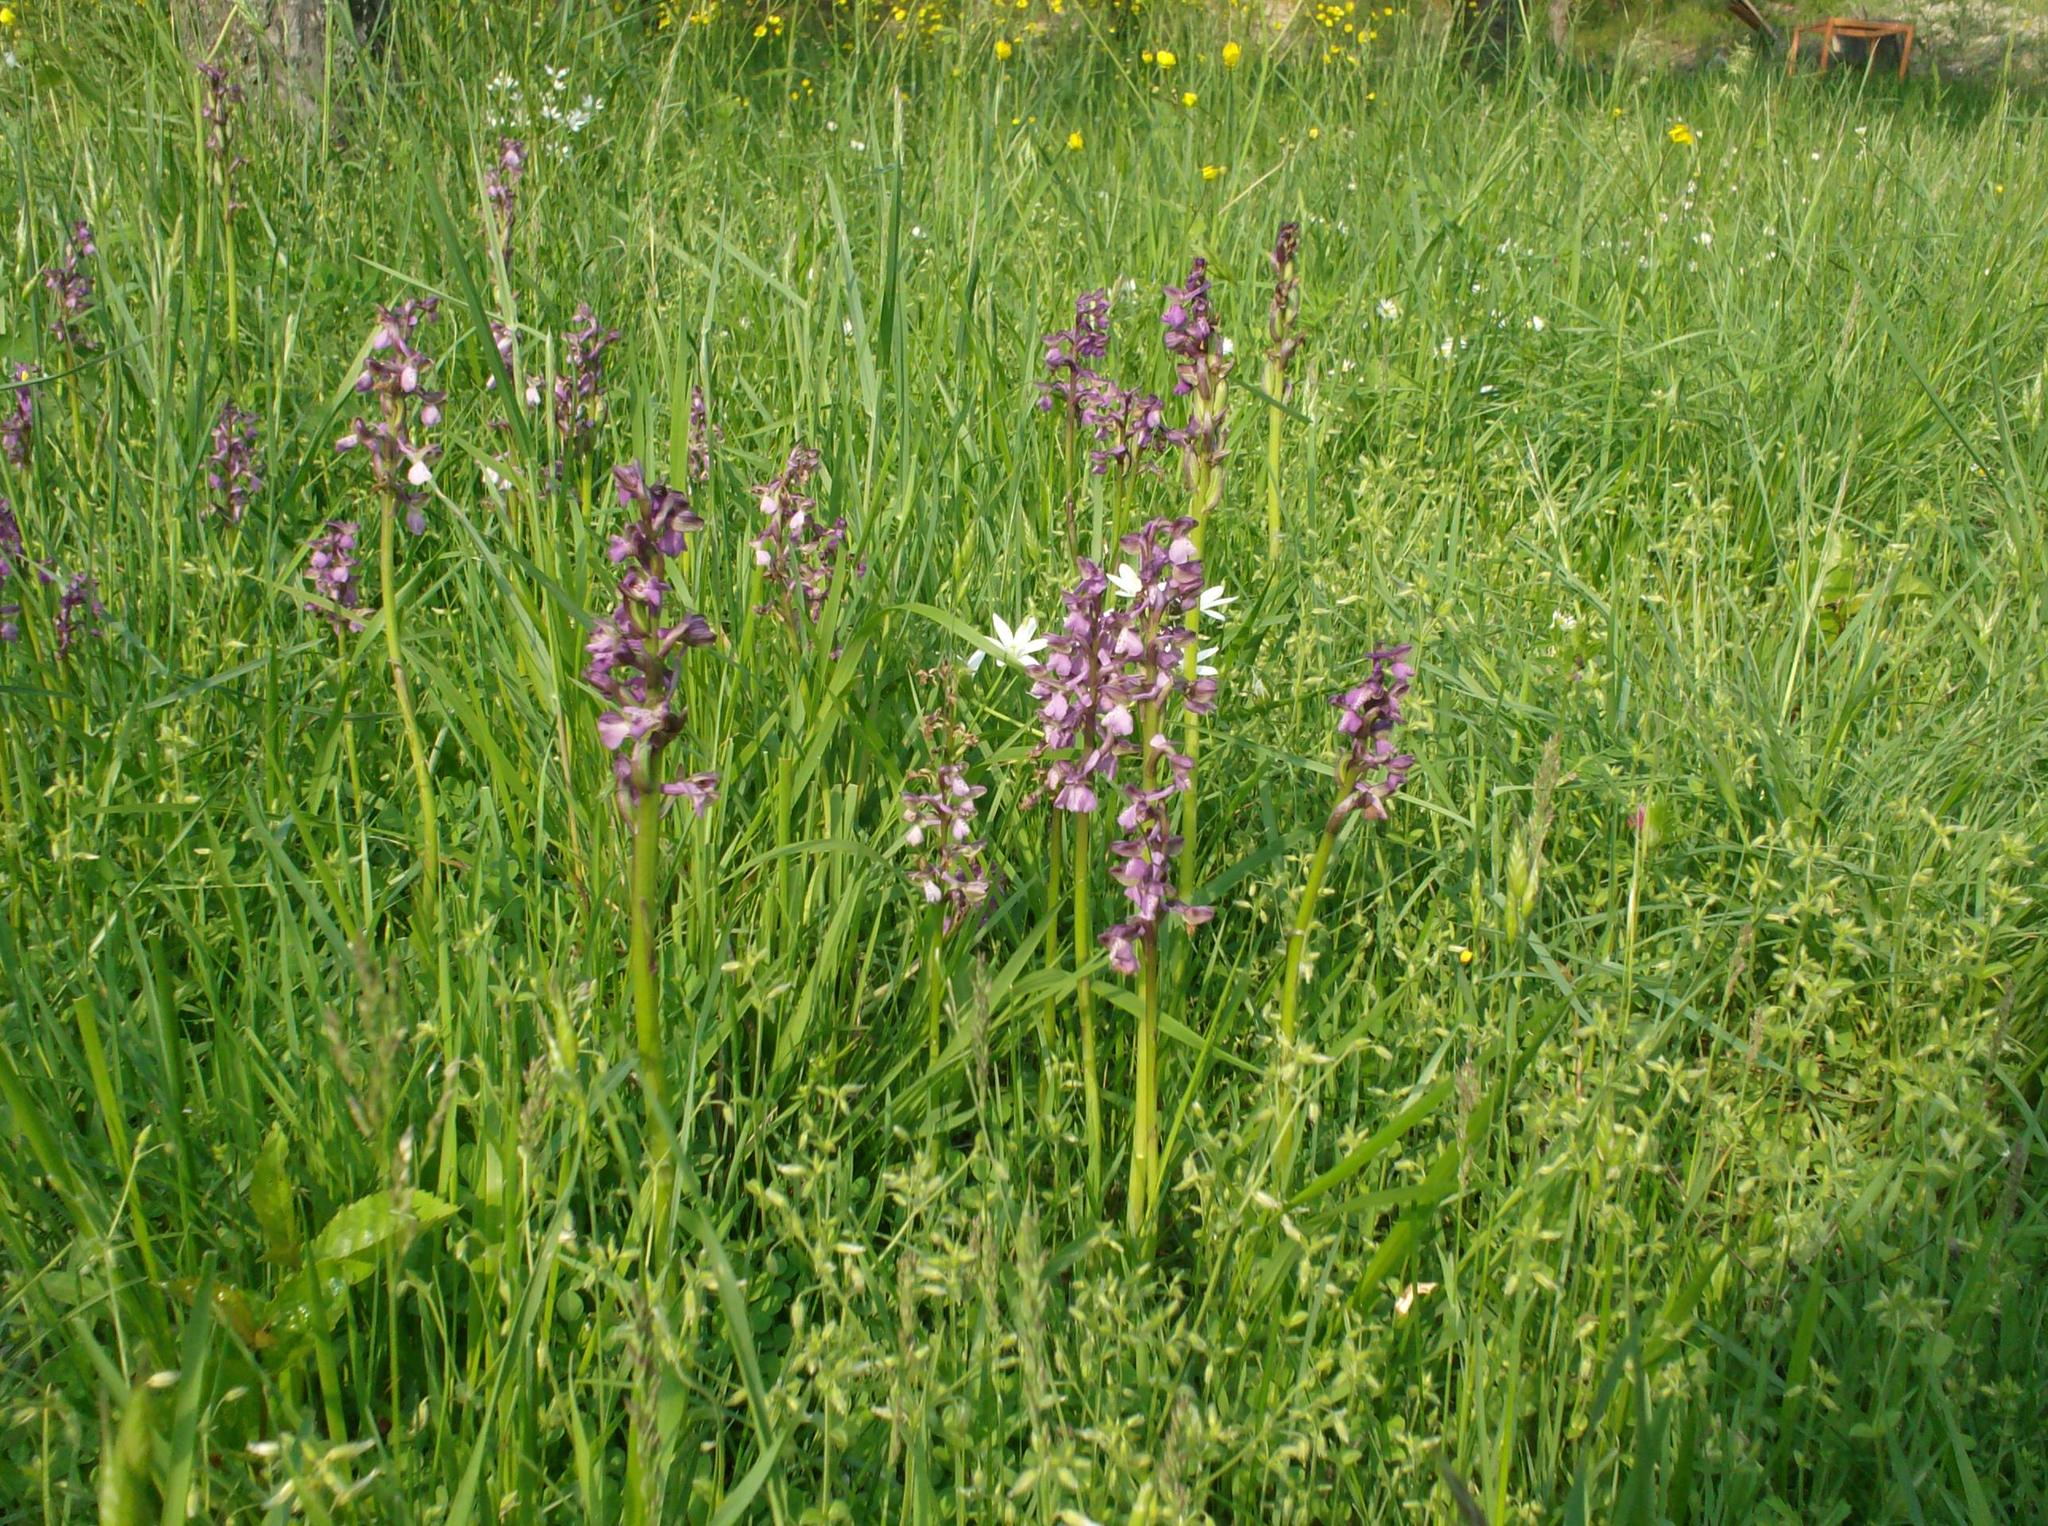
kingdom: Plantae
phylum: Tracheophyta
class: Liliopsida
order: Asparagales
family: Orchidaceae
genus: Anacamptis
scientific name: Anacamptis morio
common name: Green-winged orchid
